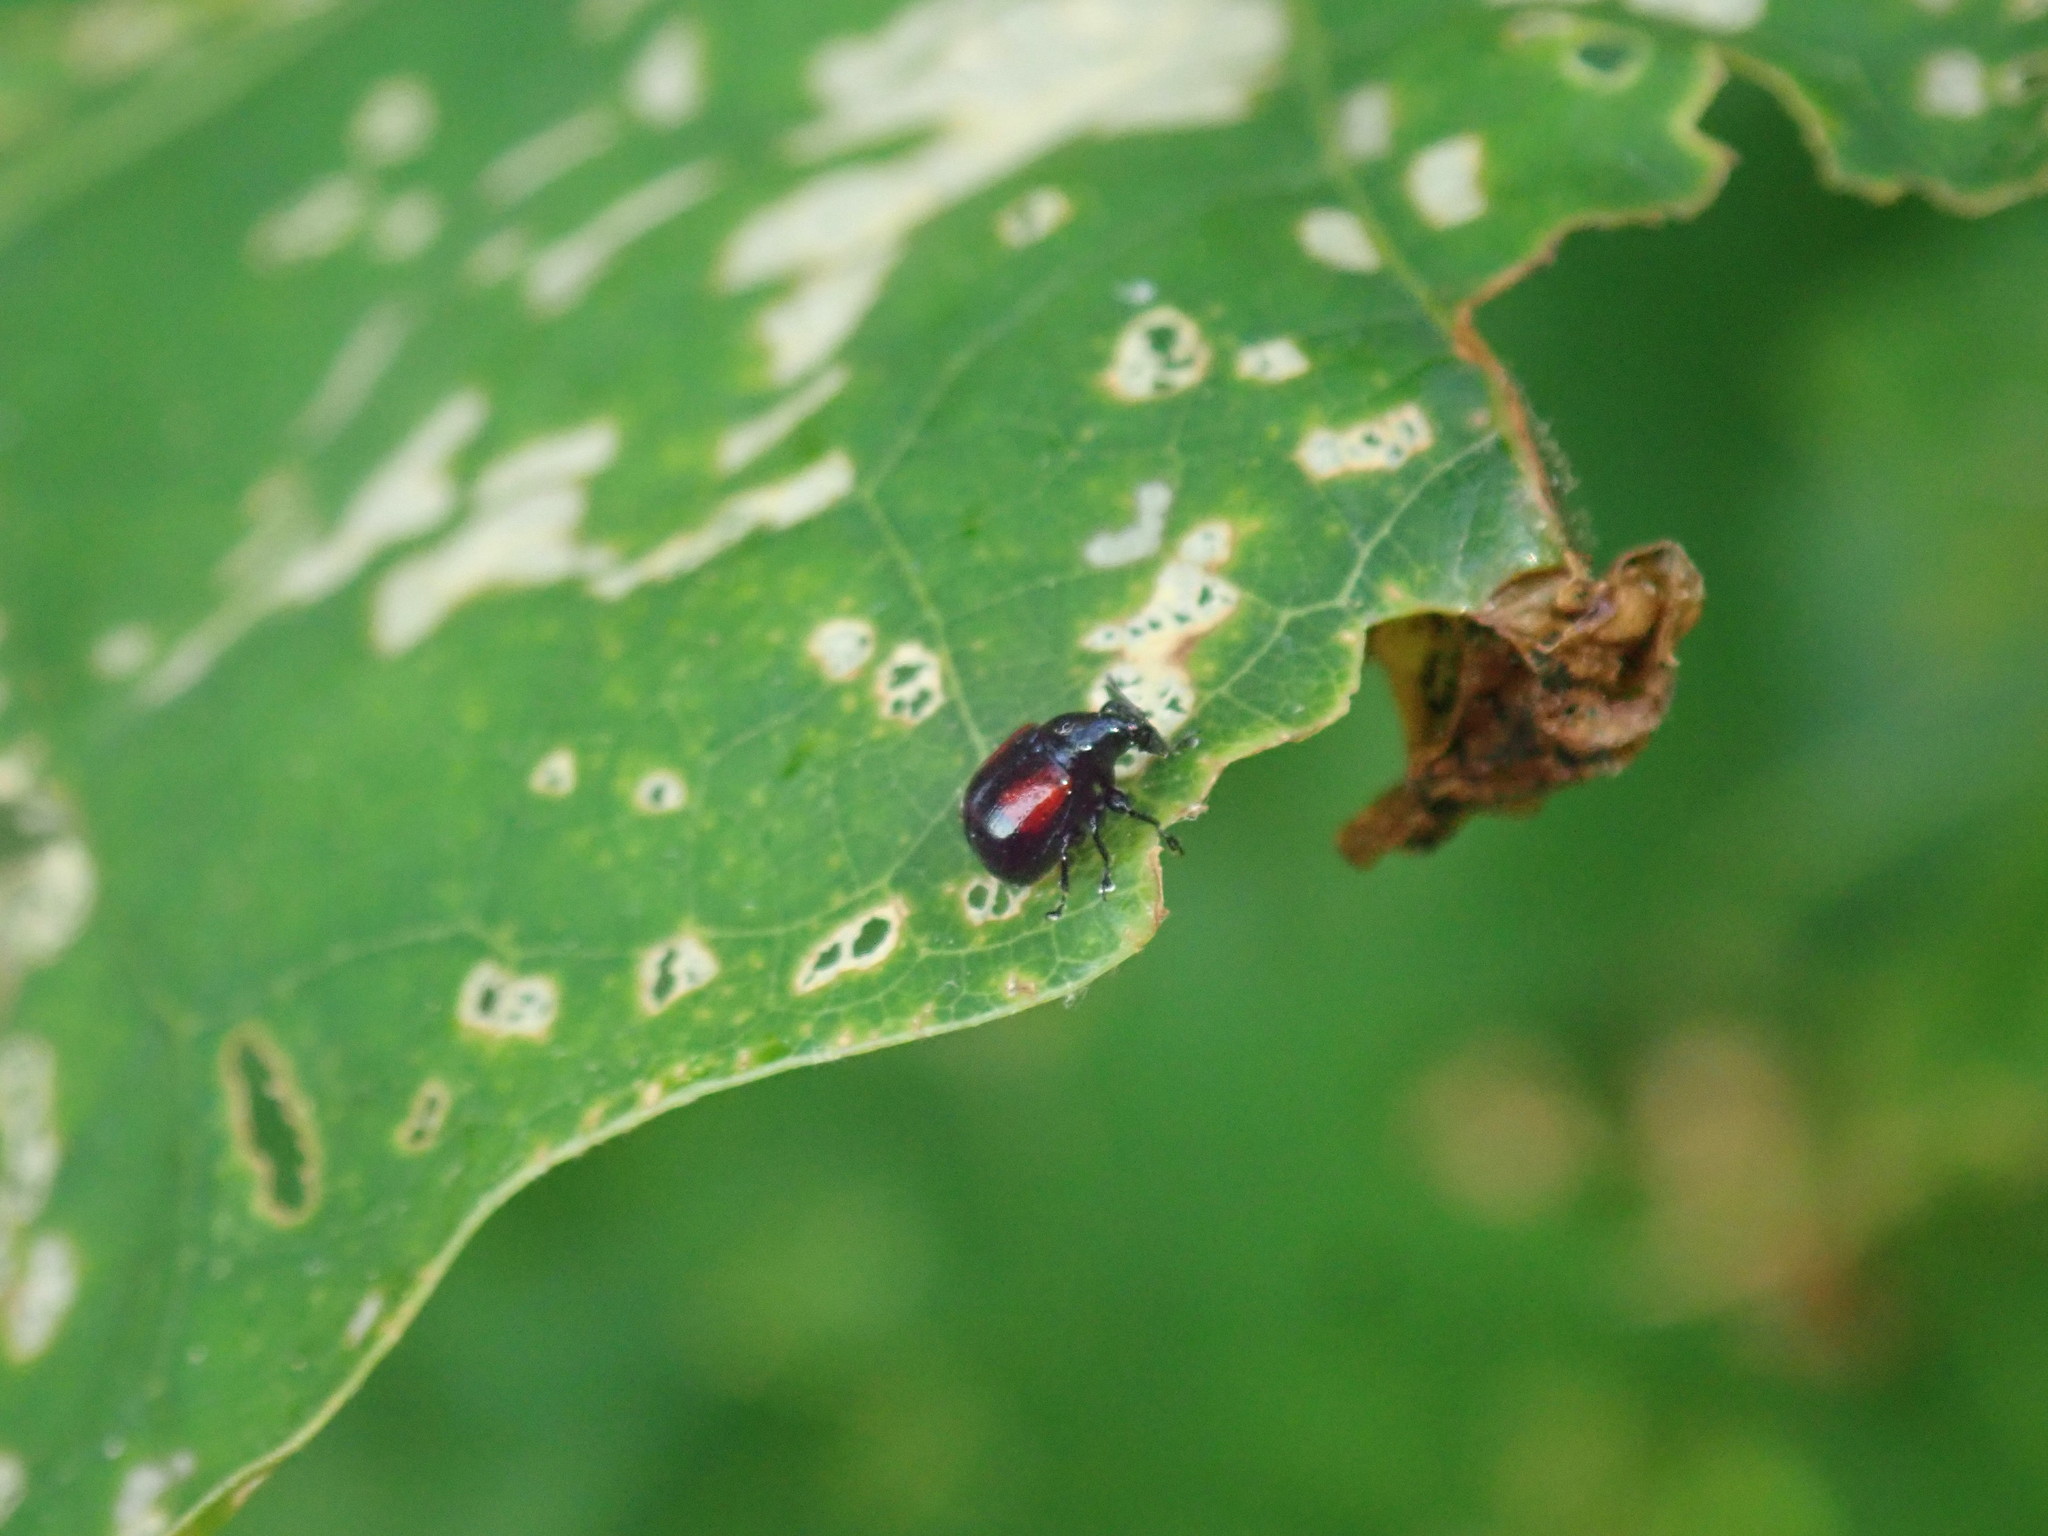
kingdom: Animalia
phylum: Arthropoda
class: Insecta
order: Coleoptera
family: Attelabidae
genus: Attelabus
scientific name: Attelabus bipustulatus
